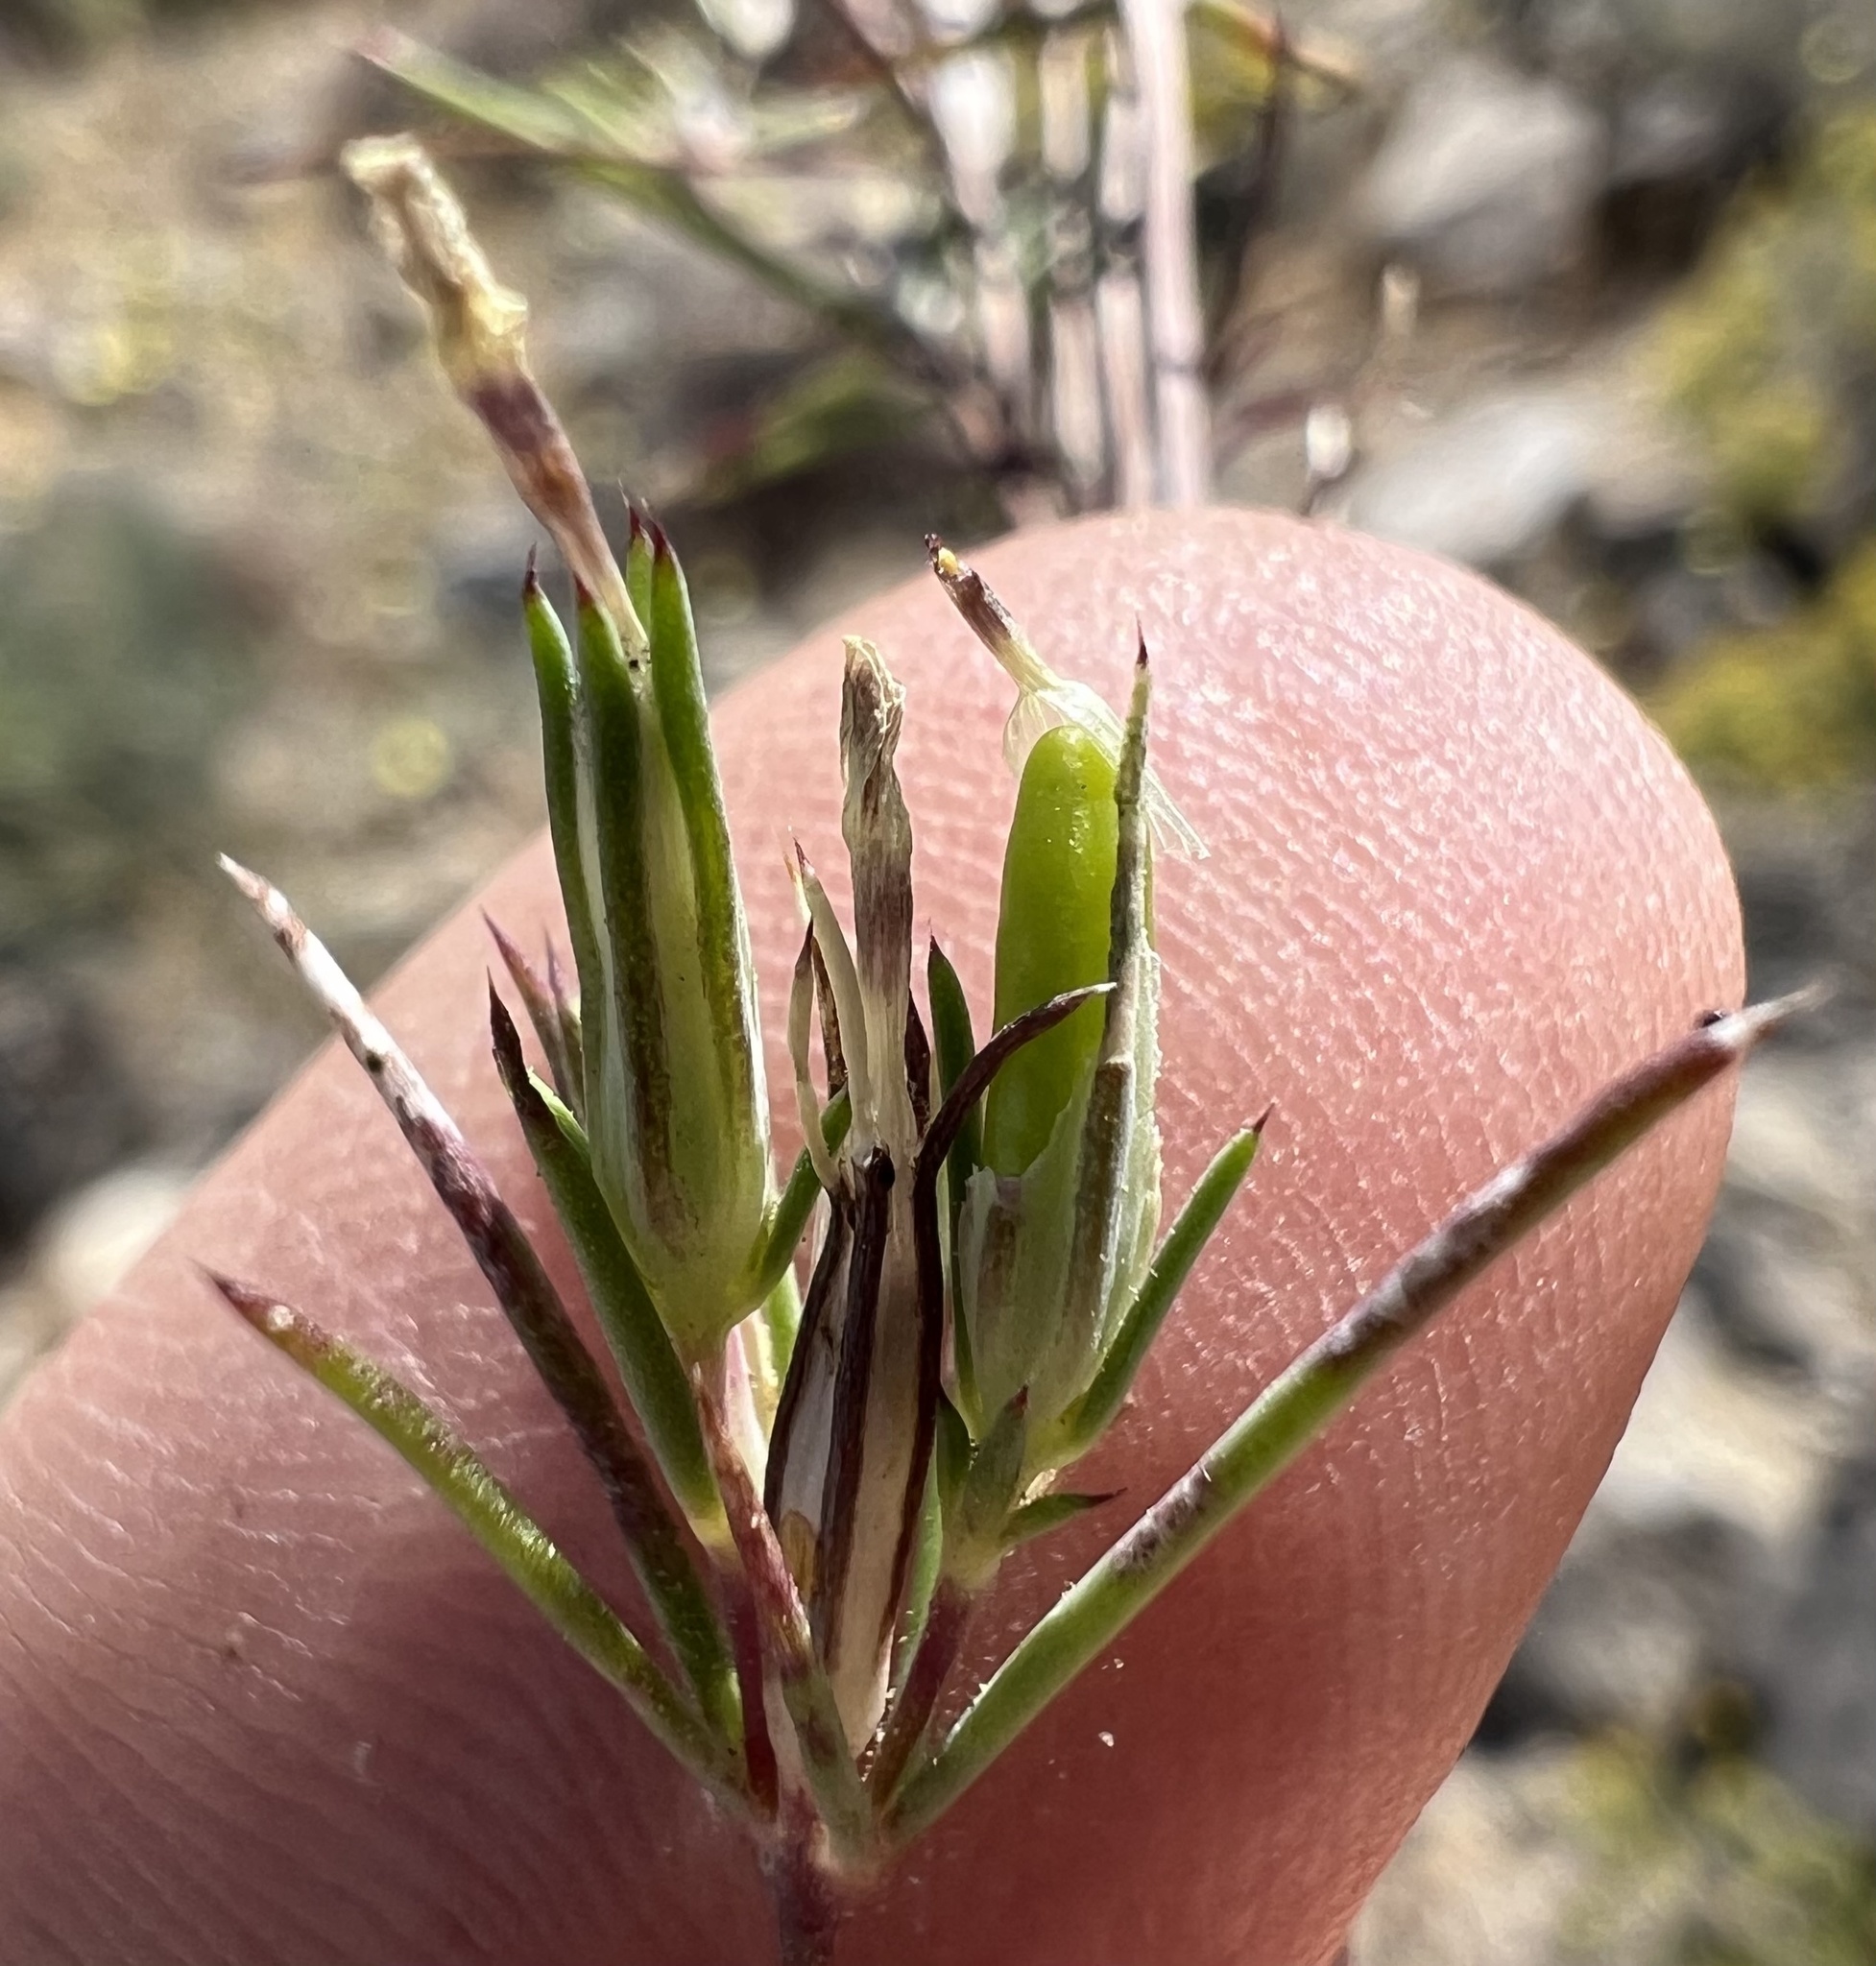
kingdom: Plantae
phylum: Tracheophyta
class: Magnoliopsida
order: Ericales
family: Polemoniaceae
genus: Linanthus
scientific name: Linanthus bigelovii
